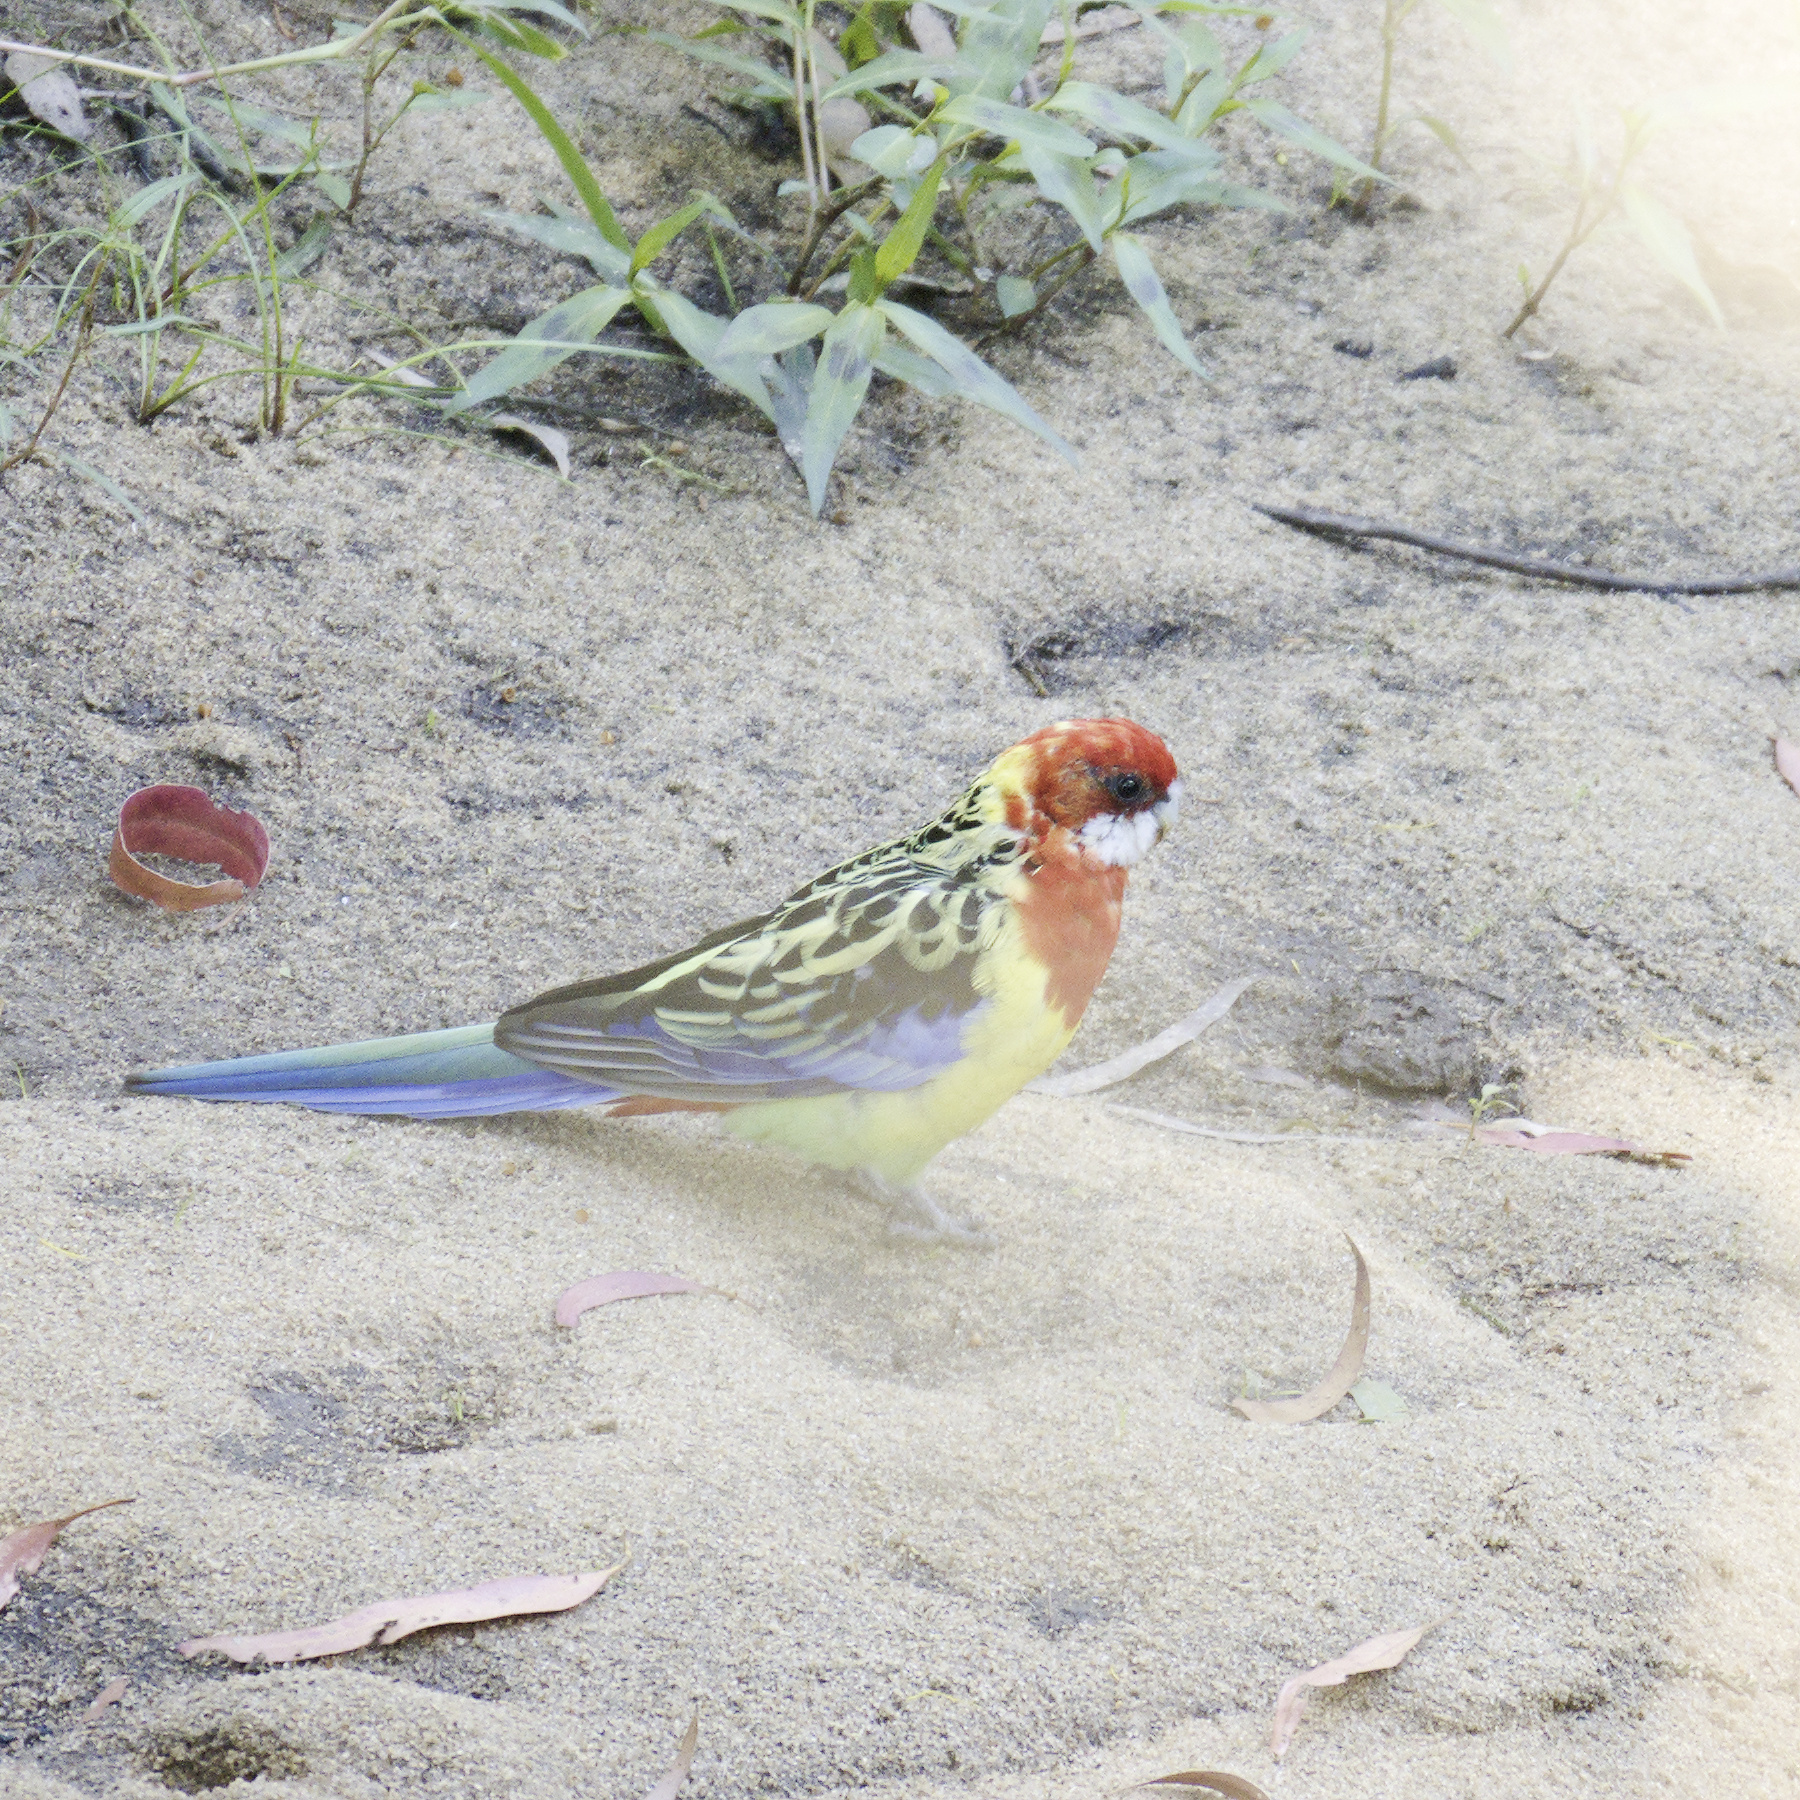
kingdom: Animalia
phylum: Chordata
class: Aves
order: Psittaciformes
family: Psittacidae
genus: Platycercus
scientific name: Platycercus eximius
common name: Eastern rosella
